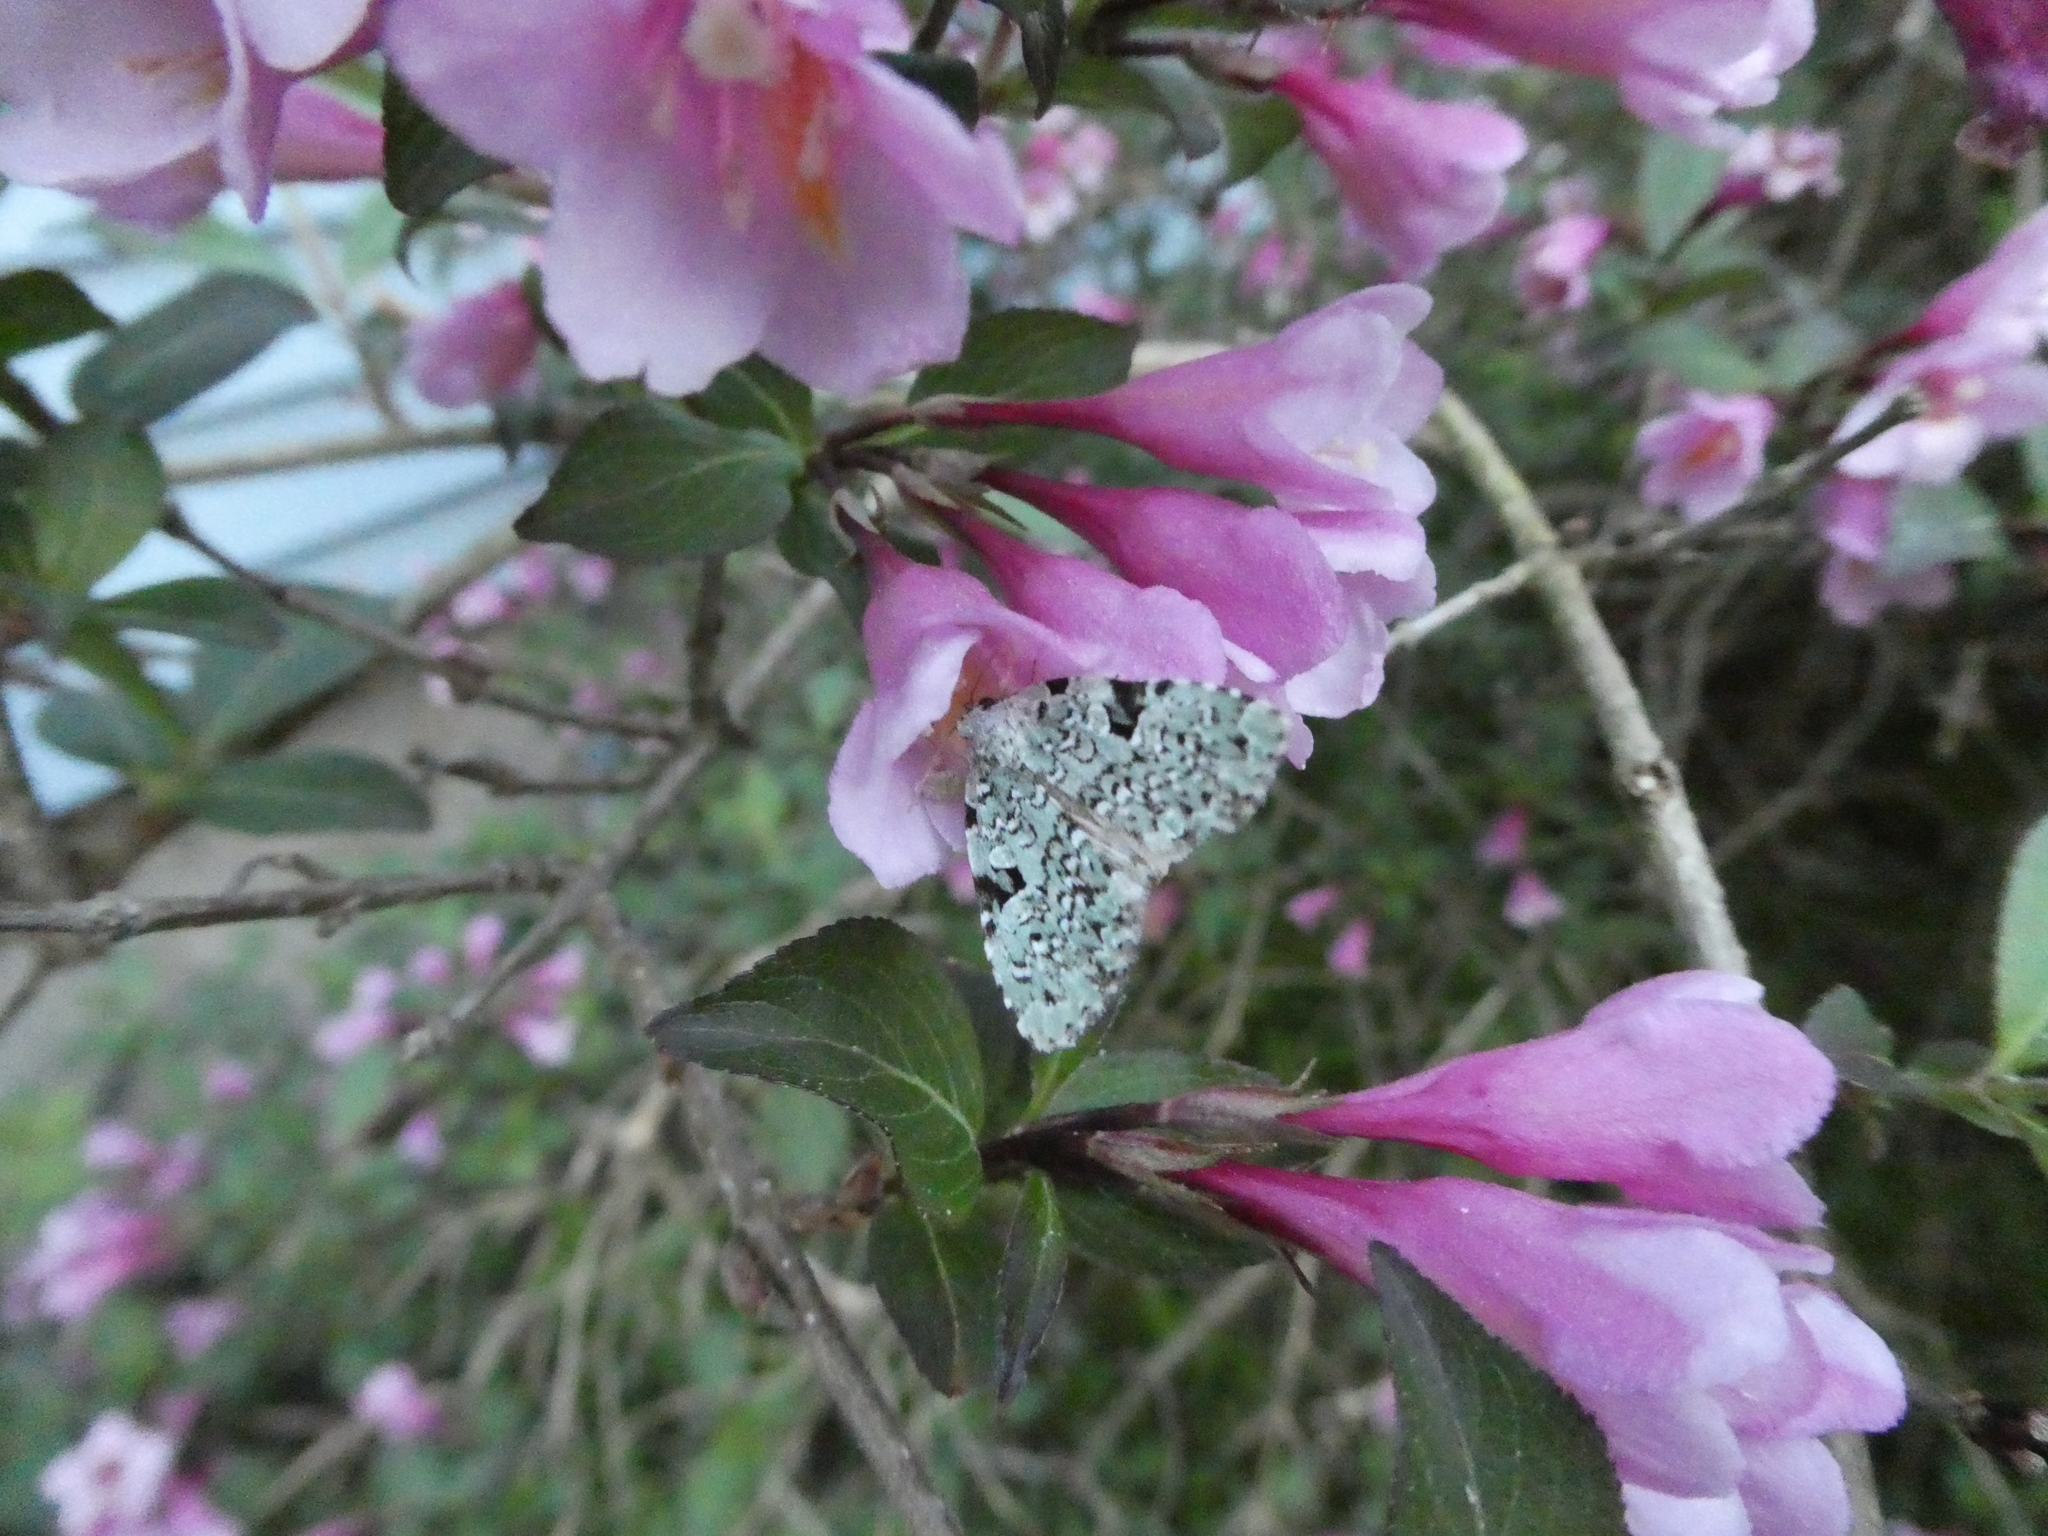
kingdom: Animalia
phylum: Arthropoda
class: Insecta
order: Lepidoptera
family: Noctuidae
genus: Leuconycta
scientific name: Leuconycta diphteroides
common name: Green leuconycta moth
